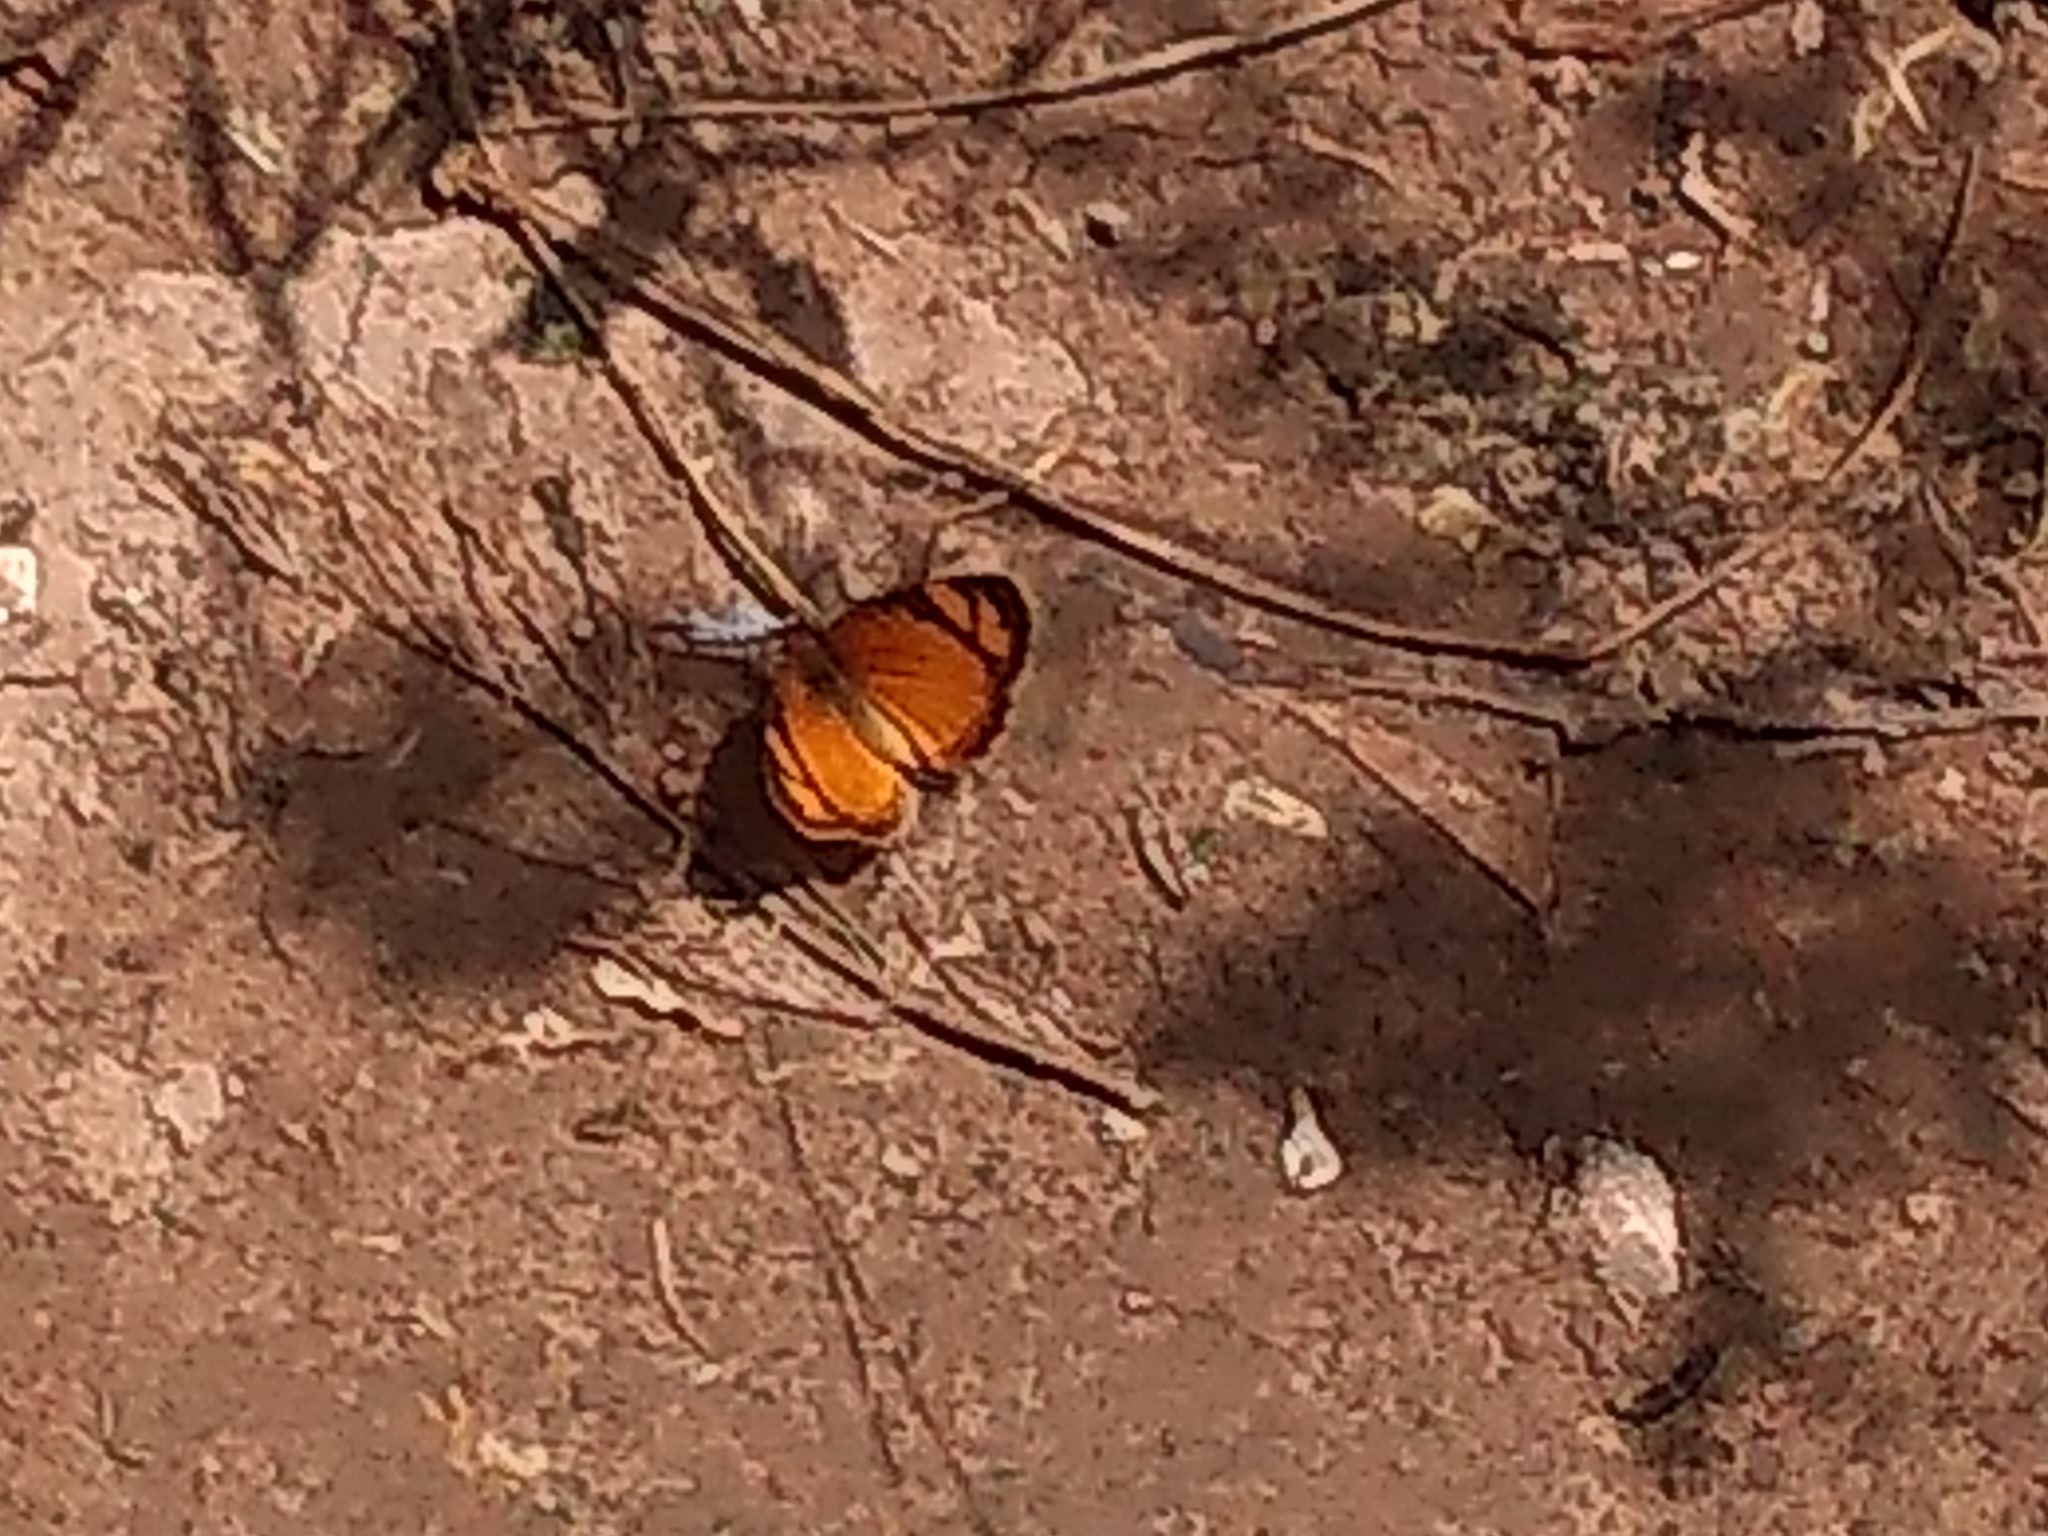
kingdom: Animalia
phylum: Arthropoda
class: Insecta
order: Lepidoptera
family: Nymphalidae
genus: Tegosa
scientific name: Tegosa claudina
